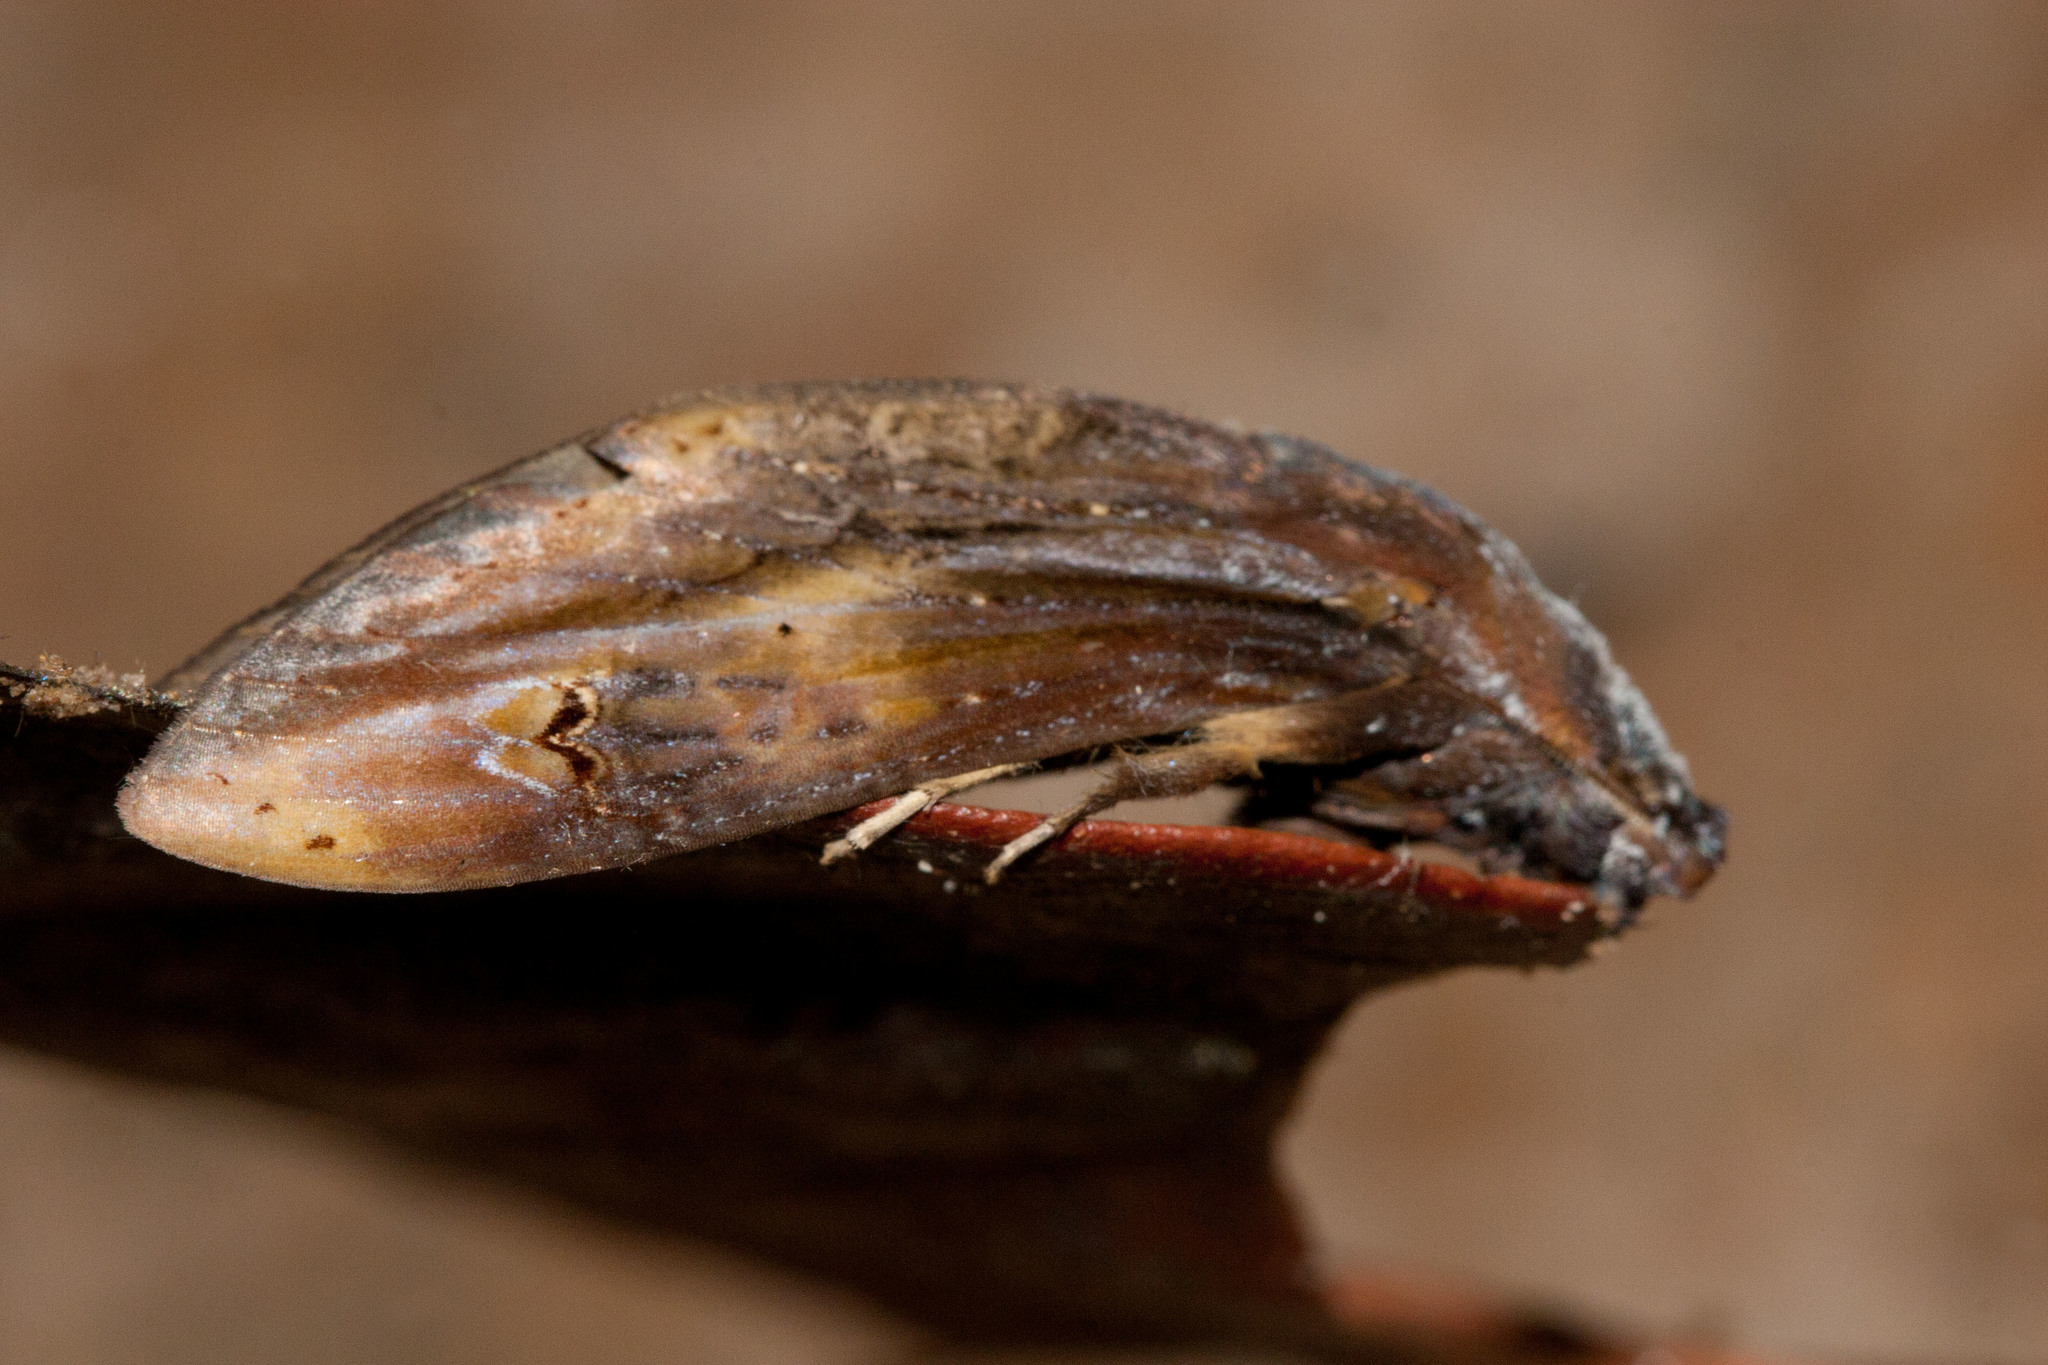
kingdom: Animalia
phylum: Arthropoda
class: Insecta
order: Lepidoptera
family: Notodontidae
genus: Nystalea
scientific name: Nystalea virgula
